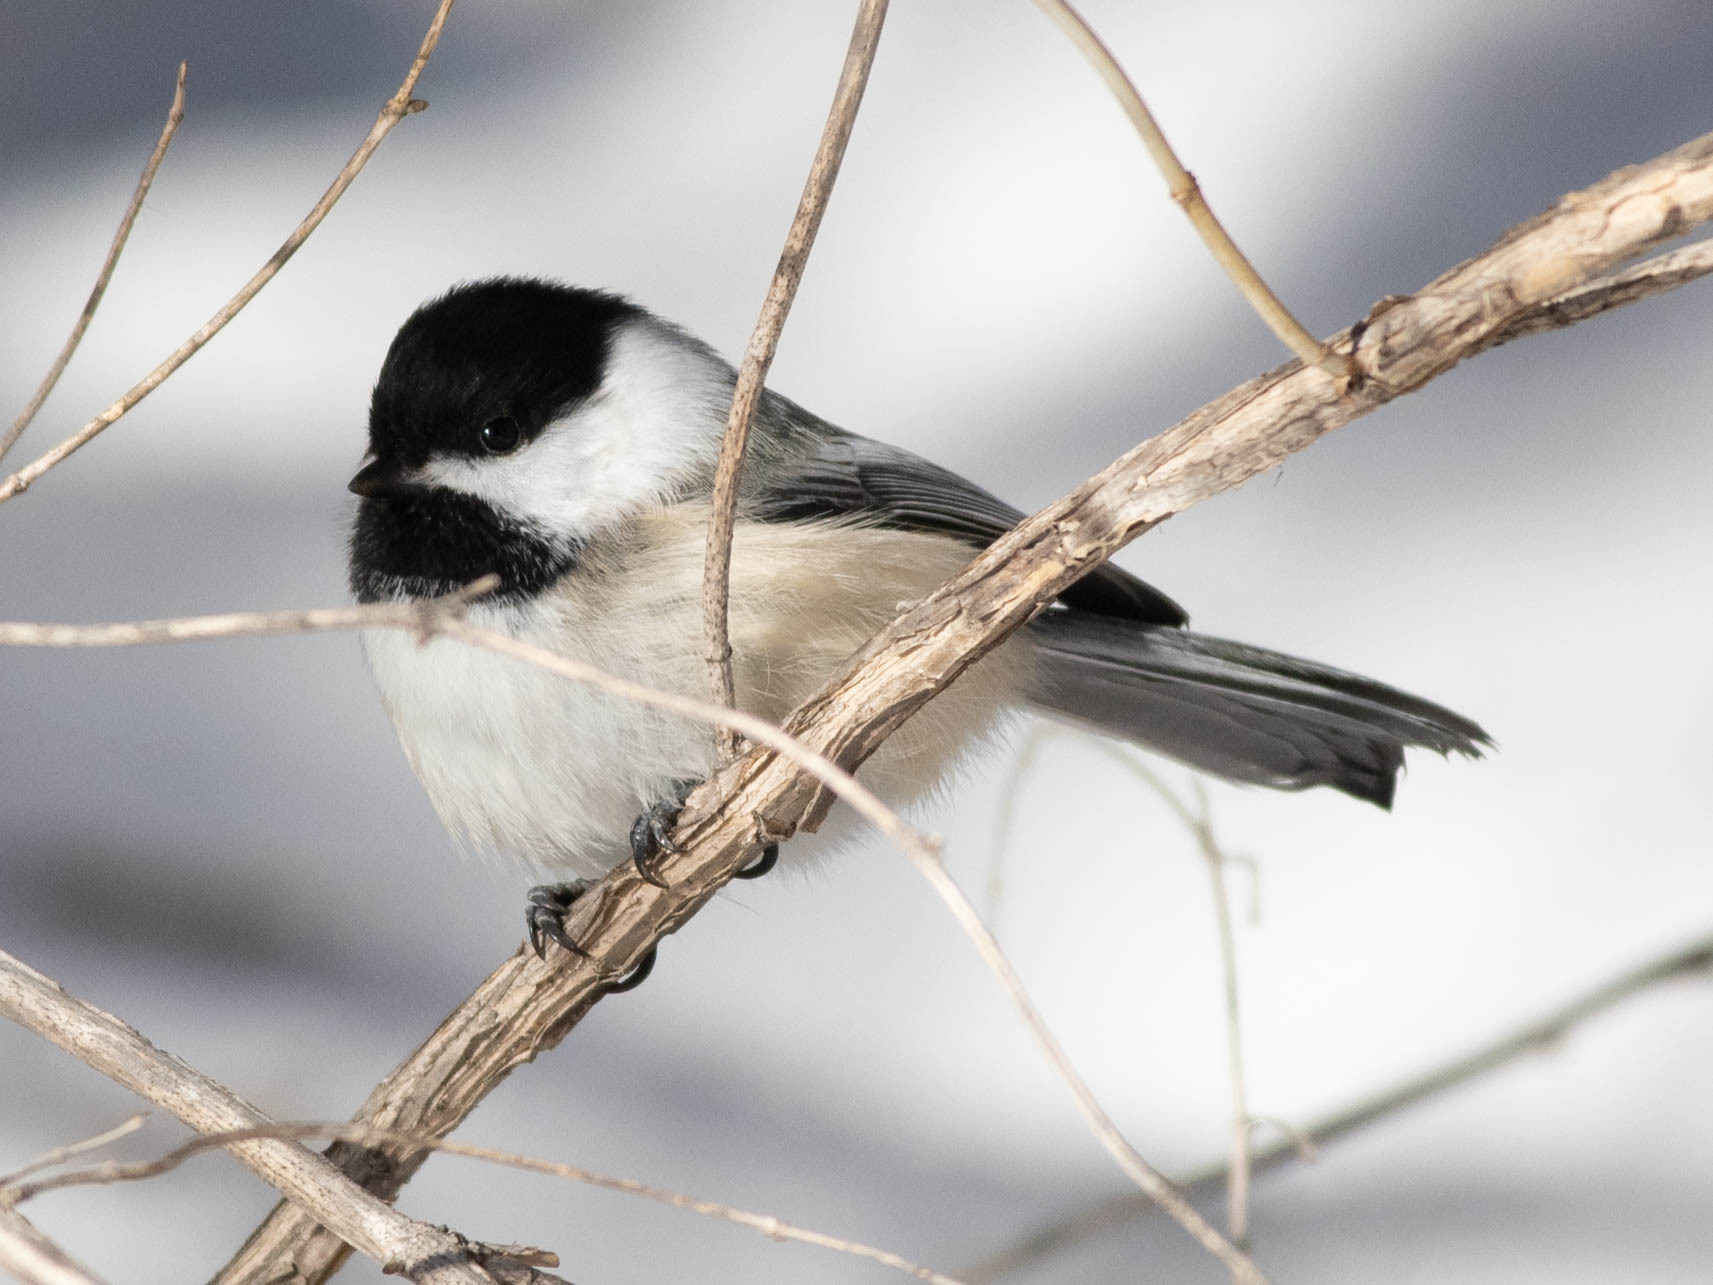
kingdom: Animalia
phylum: Chordata
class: Aves
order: Passeriformes
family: Paridae
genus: Poecile
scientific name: Poecile atricapillus
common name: Black-capped chickadee
